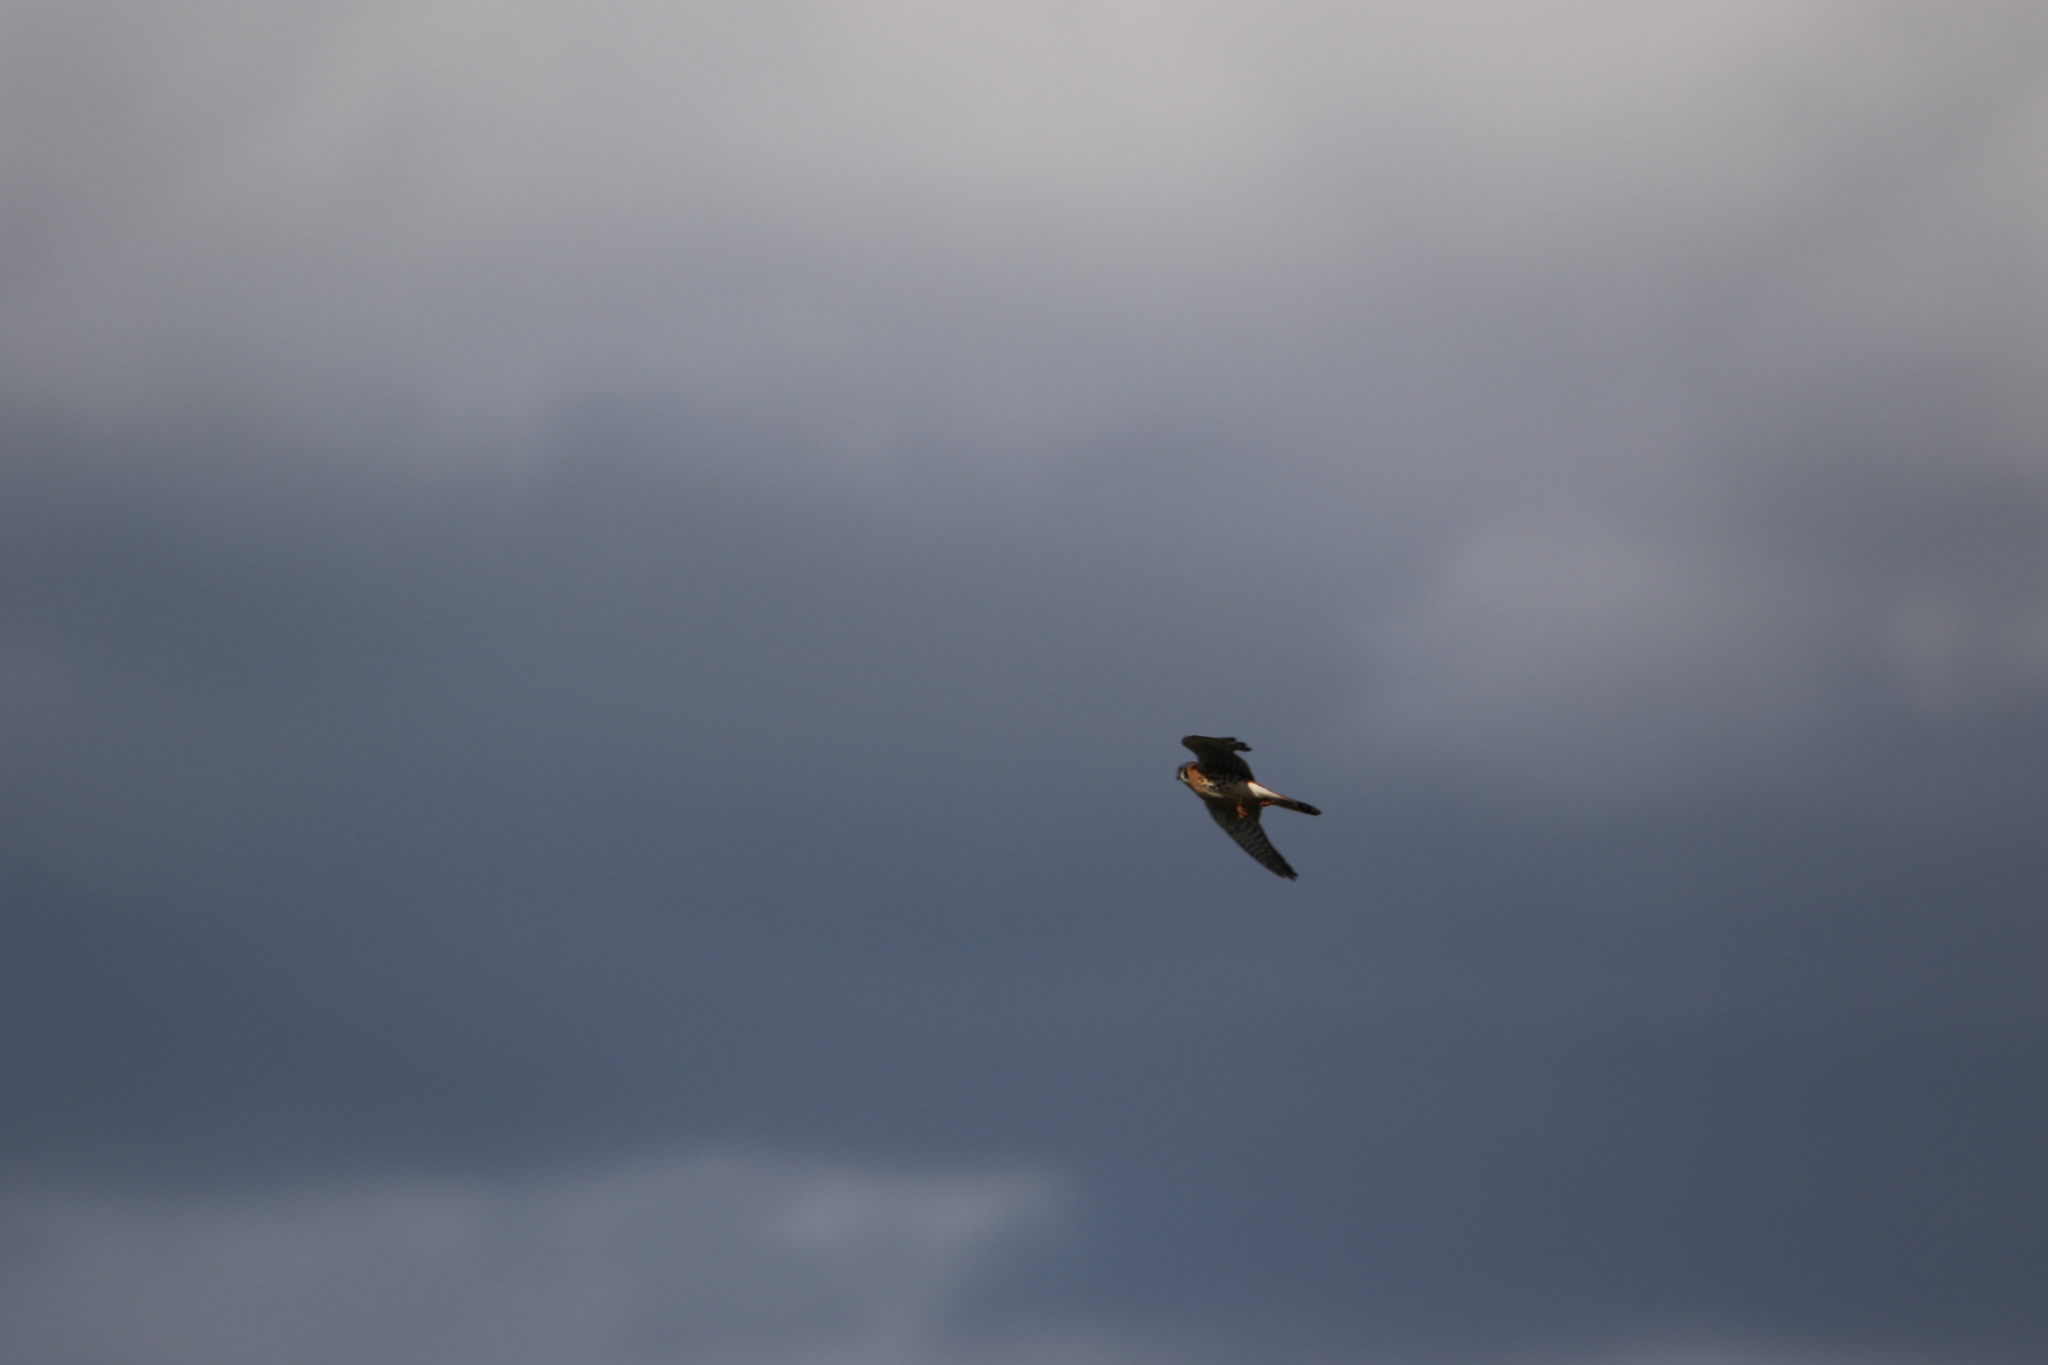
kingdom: Animalia
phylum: Chordata
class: Aves
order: Falconiformes
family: Falconidae
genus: Falco
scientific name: Falco sparverius
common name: American kestrel
